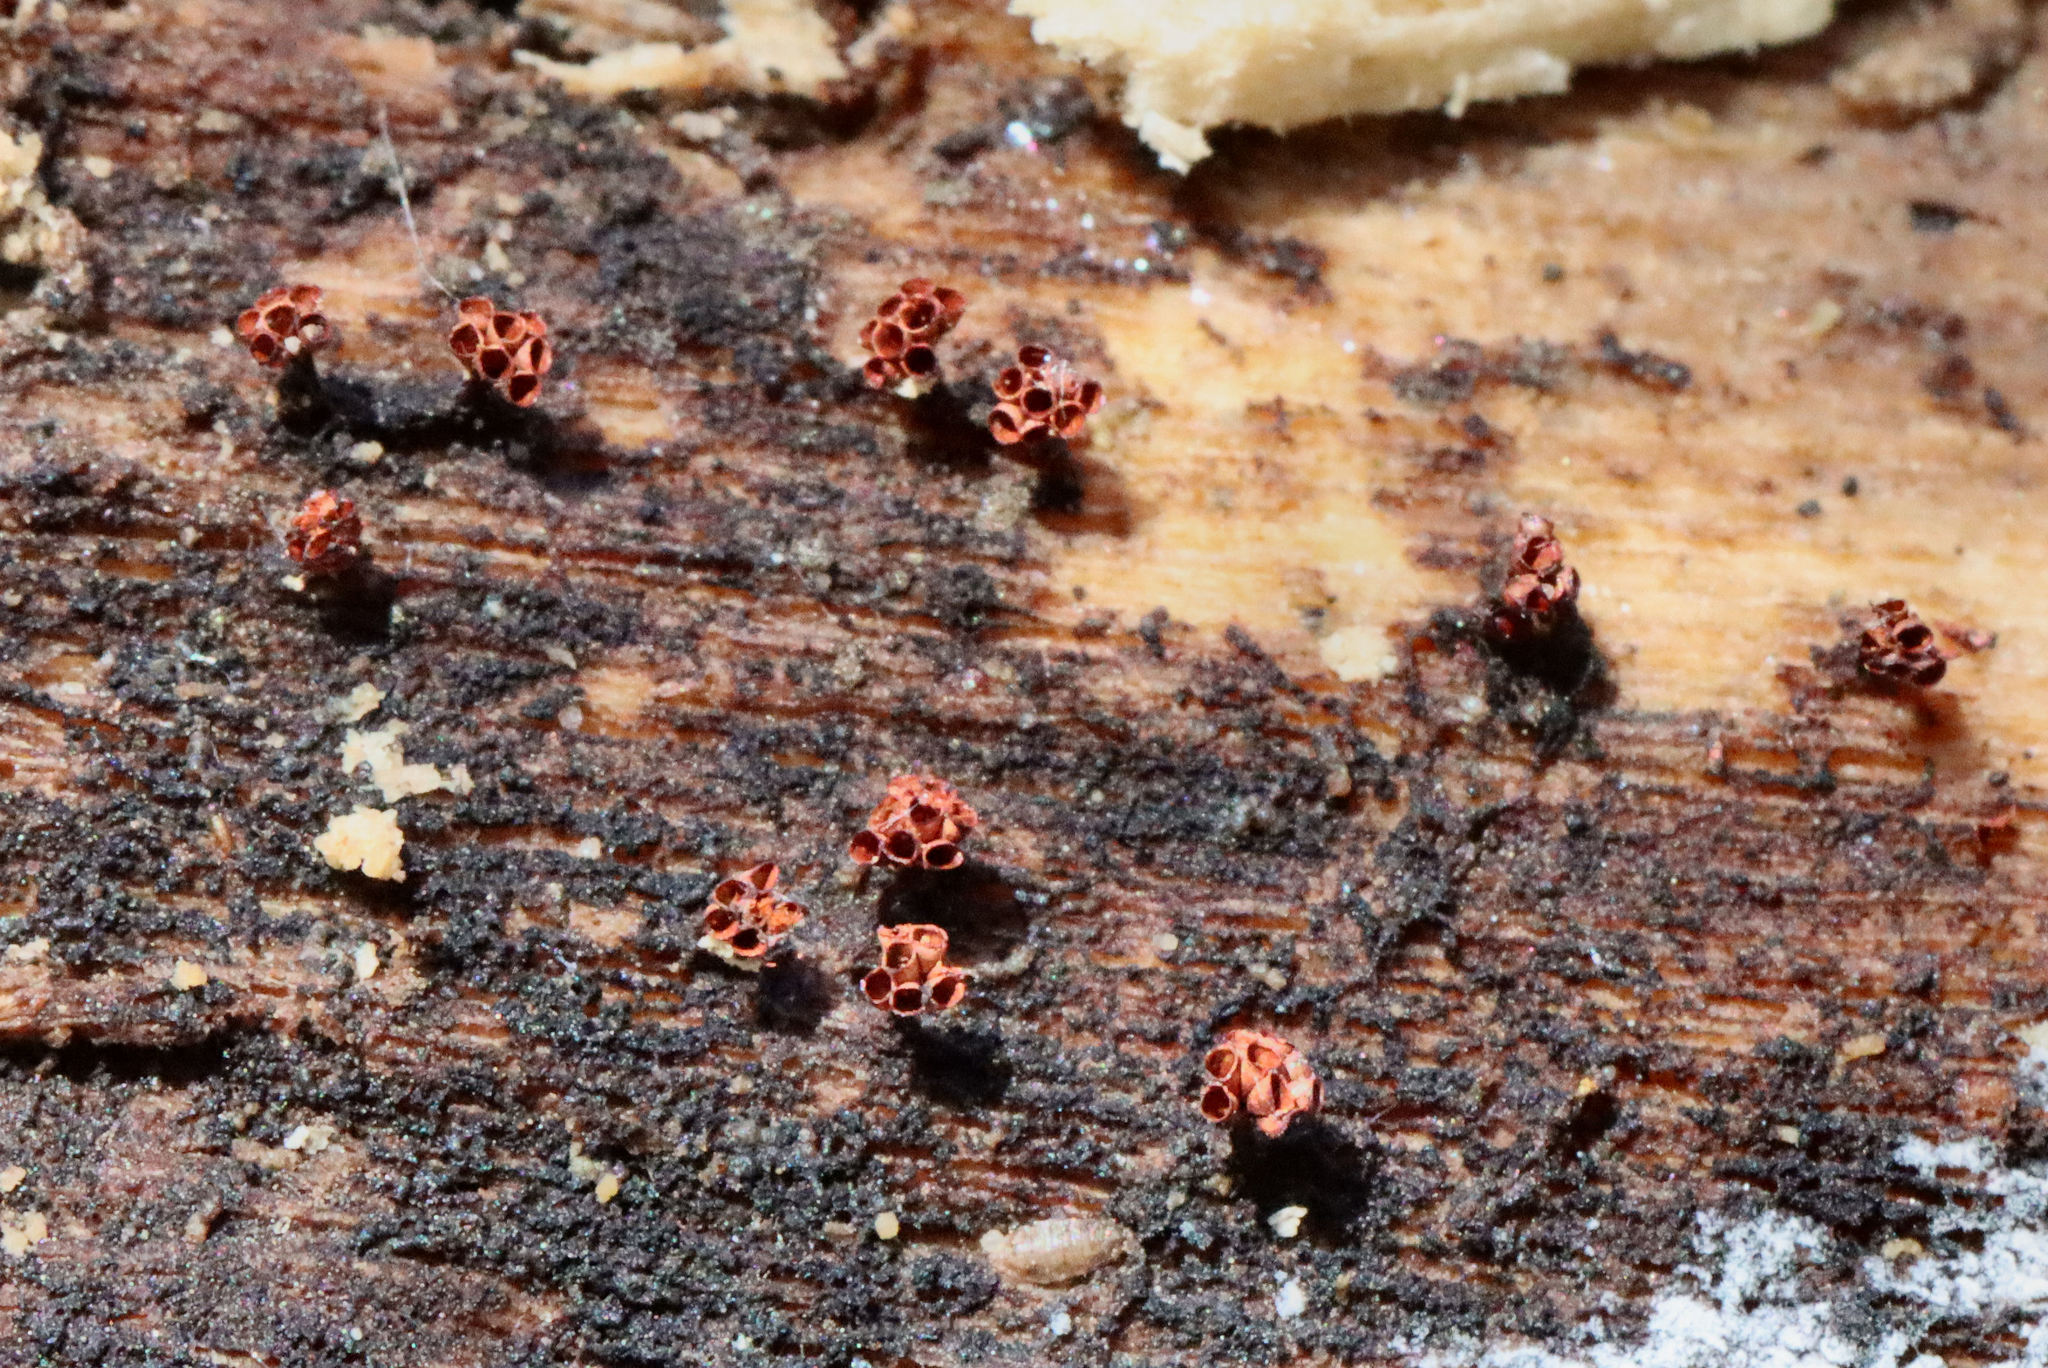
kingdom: Protozoa
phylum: Mycetozoa
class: Myxomycetes
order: Trichiales
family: Trichiaceae
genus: Metatrichia
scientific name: Metatrichia vesparia
